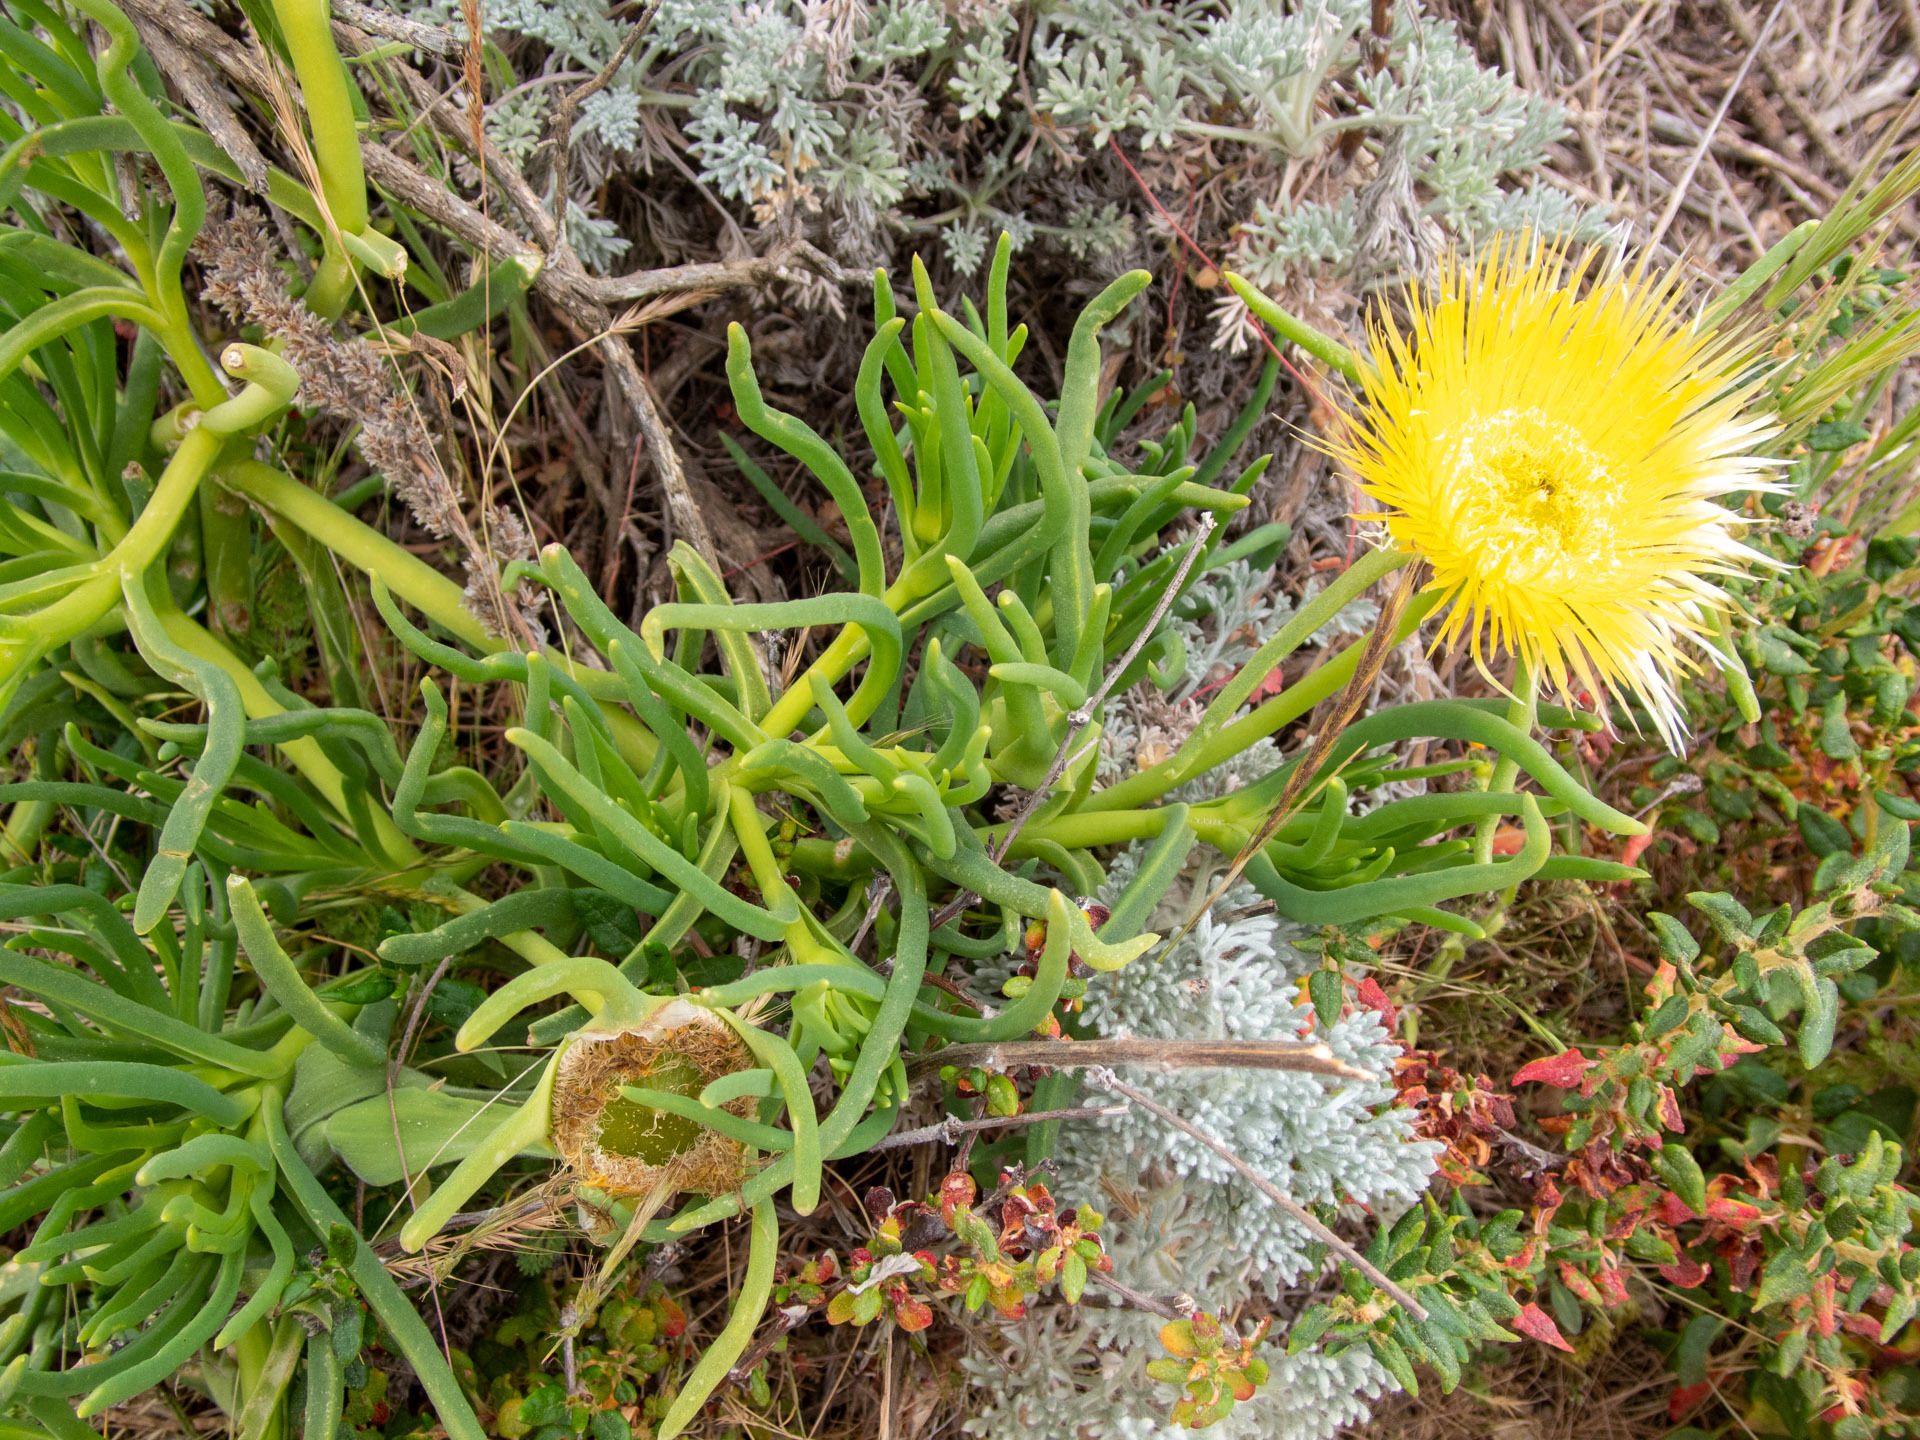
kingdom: Plantae
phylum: Tracheophyta
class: Magnoliopsida
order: Caryophyllales
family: Aizoaceae
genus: Conicosia
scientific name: Conicosia pugioniformis
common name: Narrow-leaved iceplant
